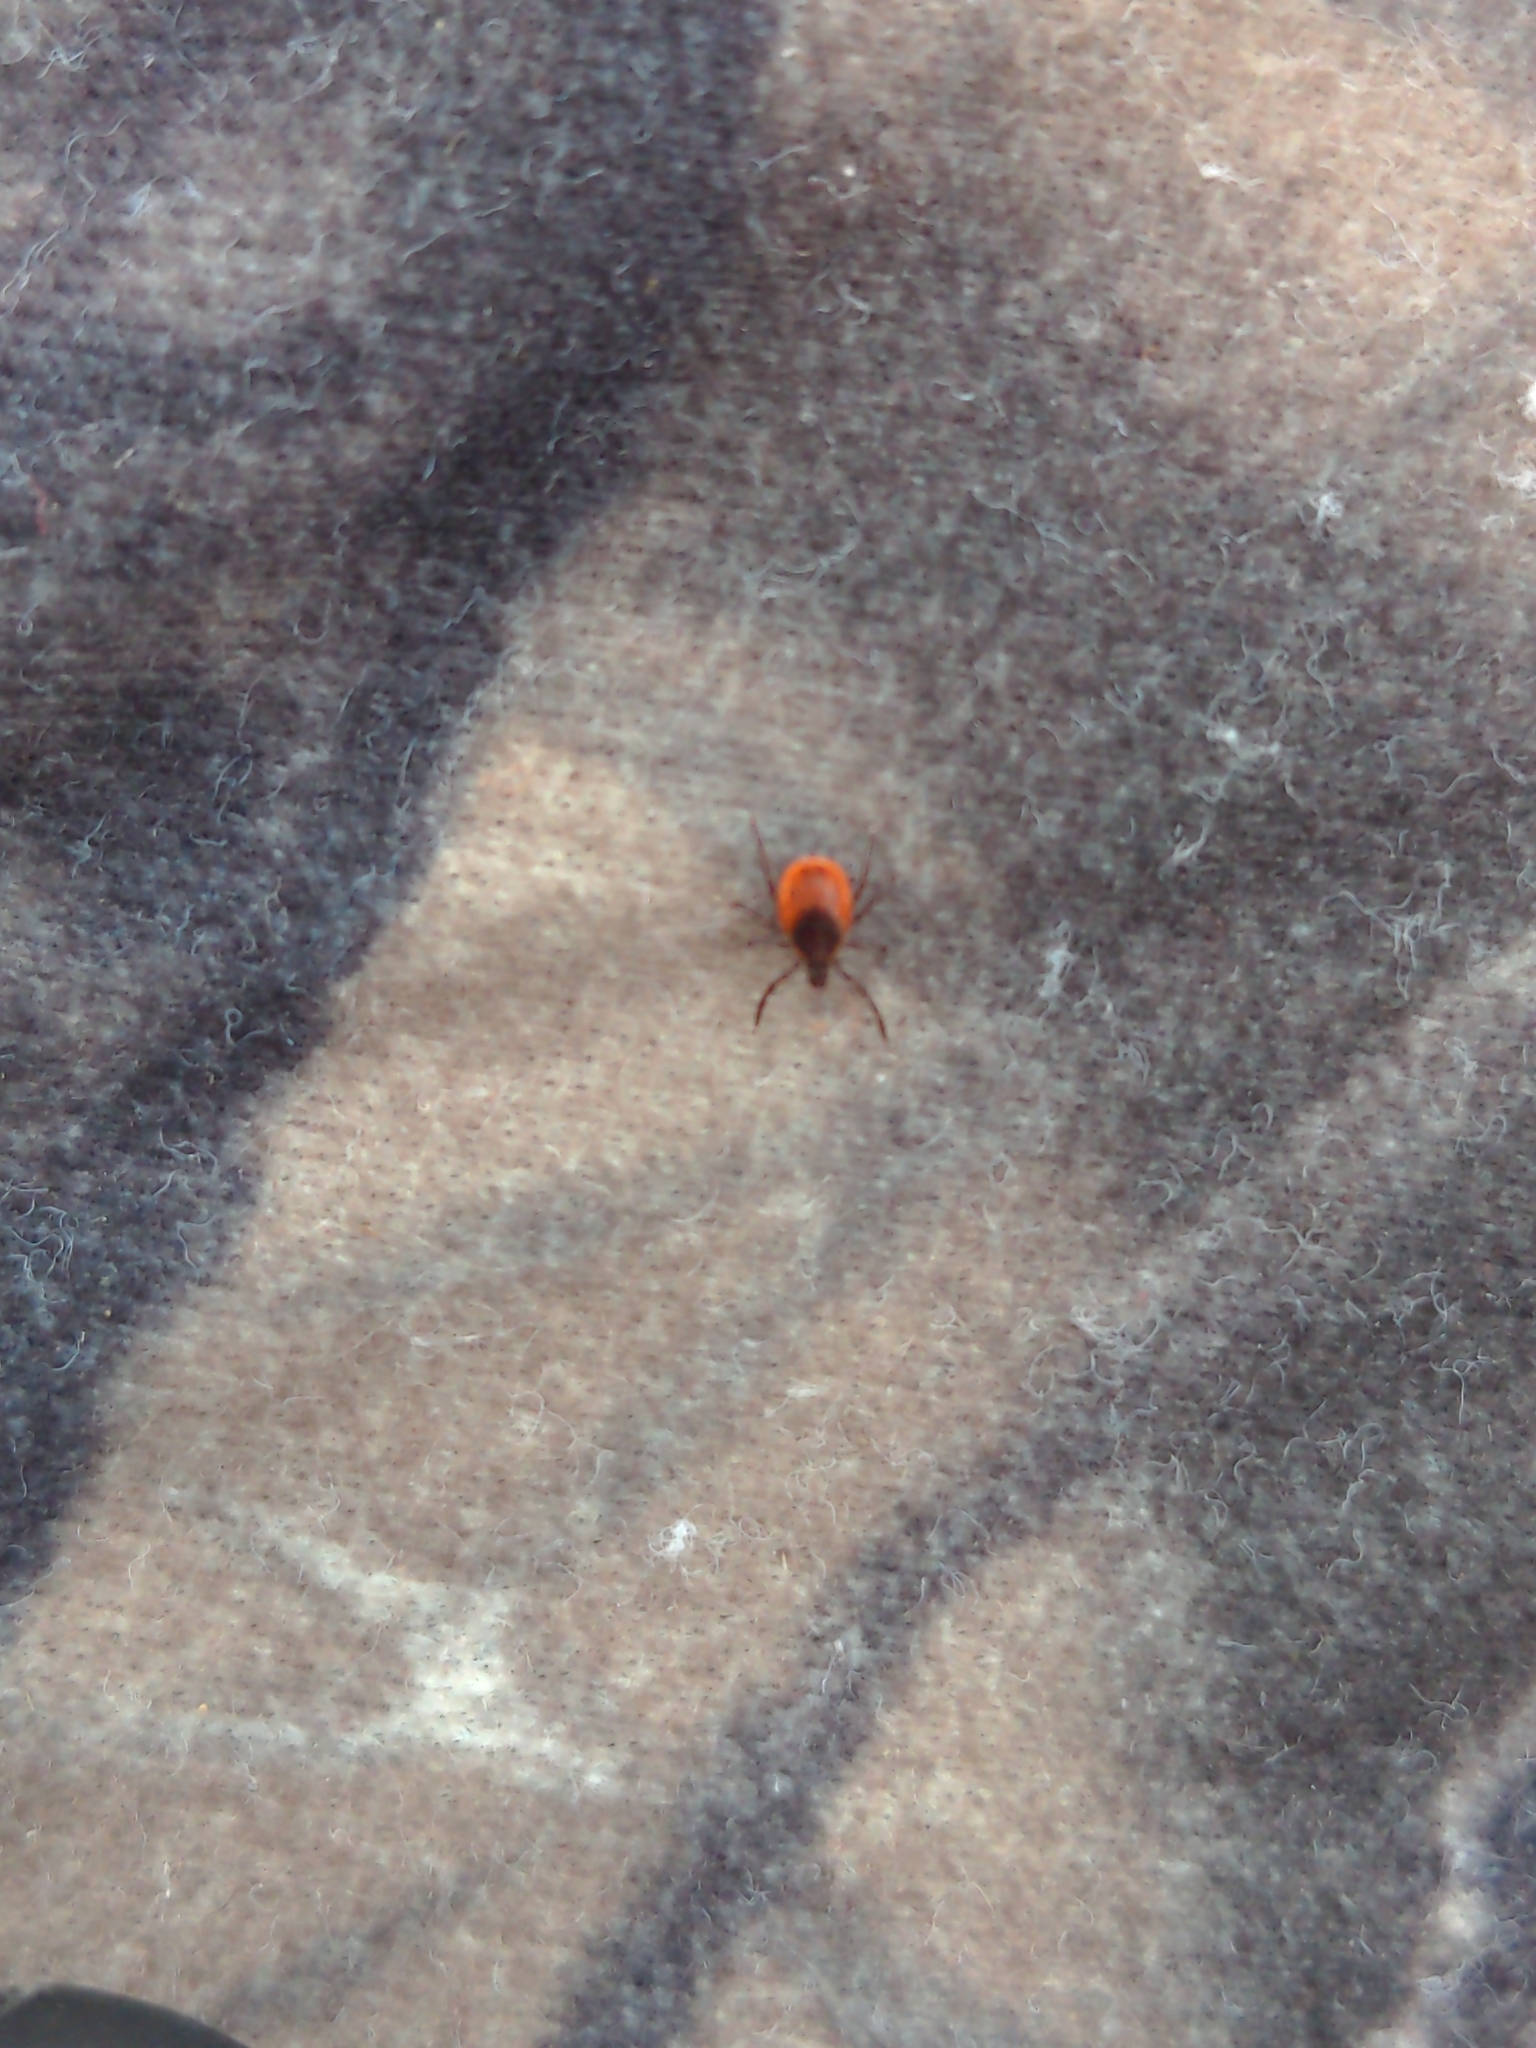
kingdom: Animalia
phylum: Arthropoda
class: Arachnida
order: Ixodida
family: Ixodidae
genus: Ixodes
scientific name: Ixodes scapularis
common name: Black legged tick
